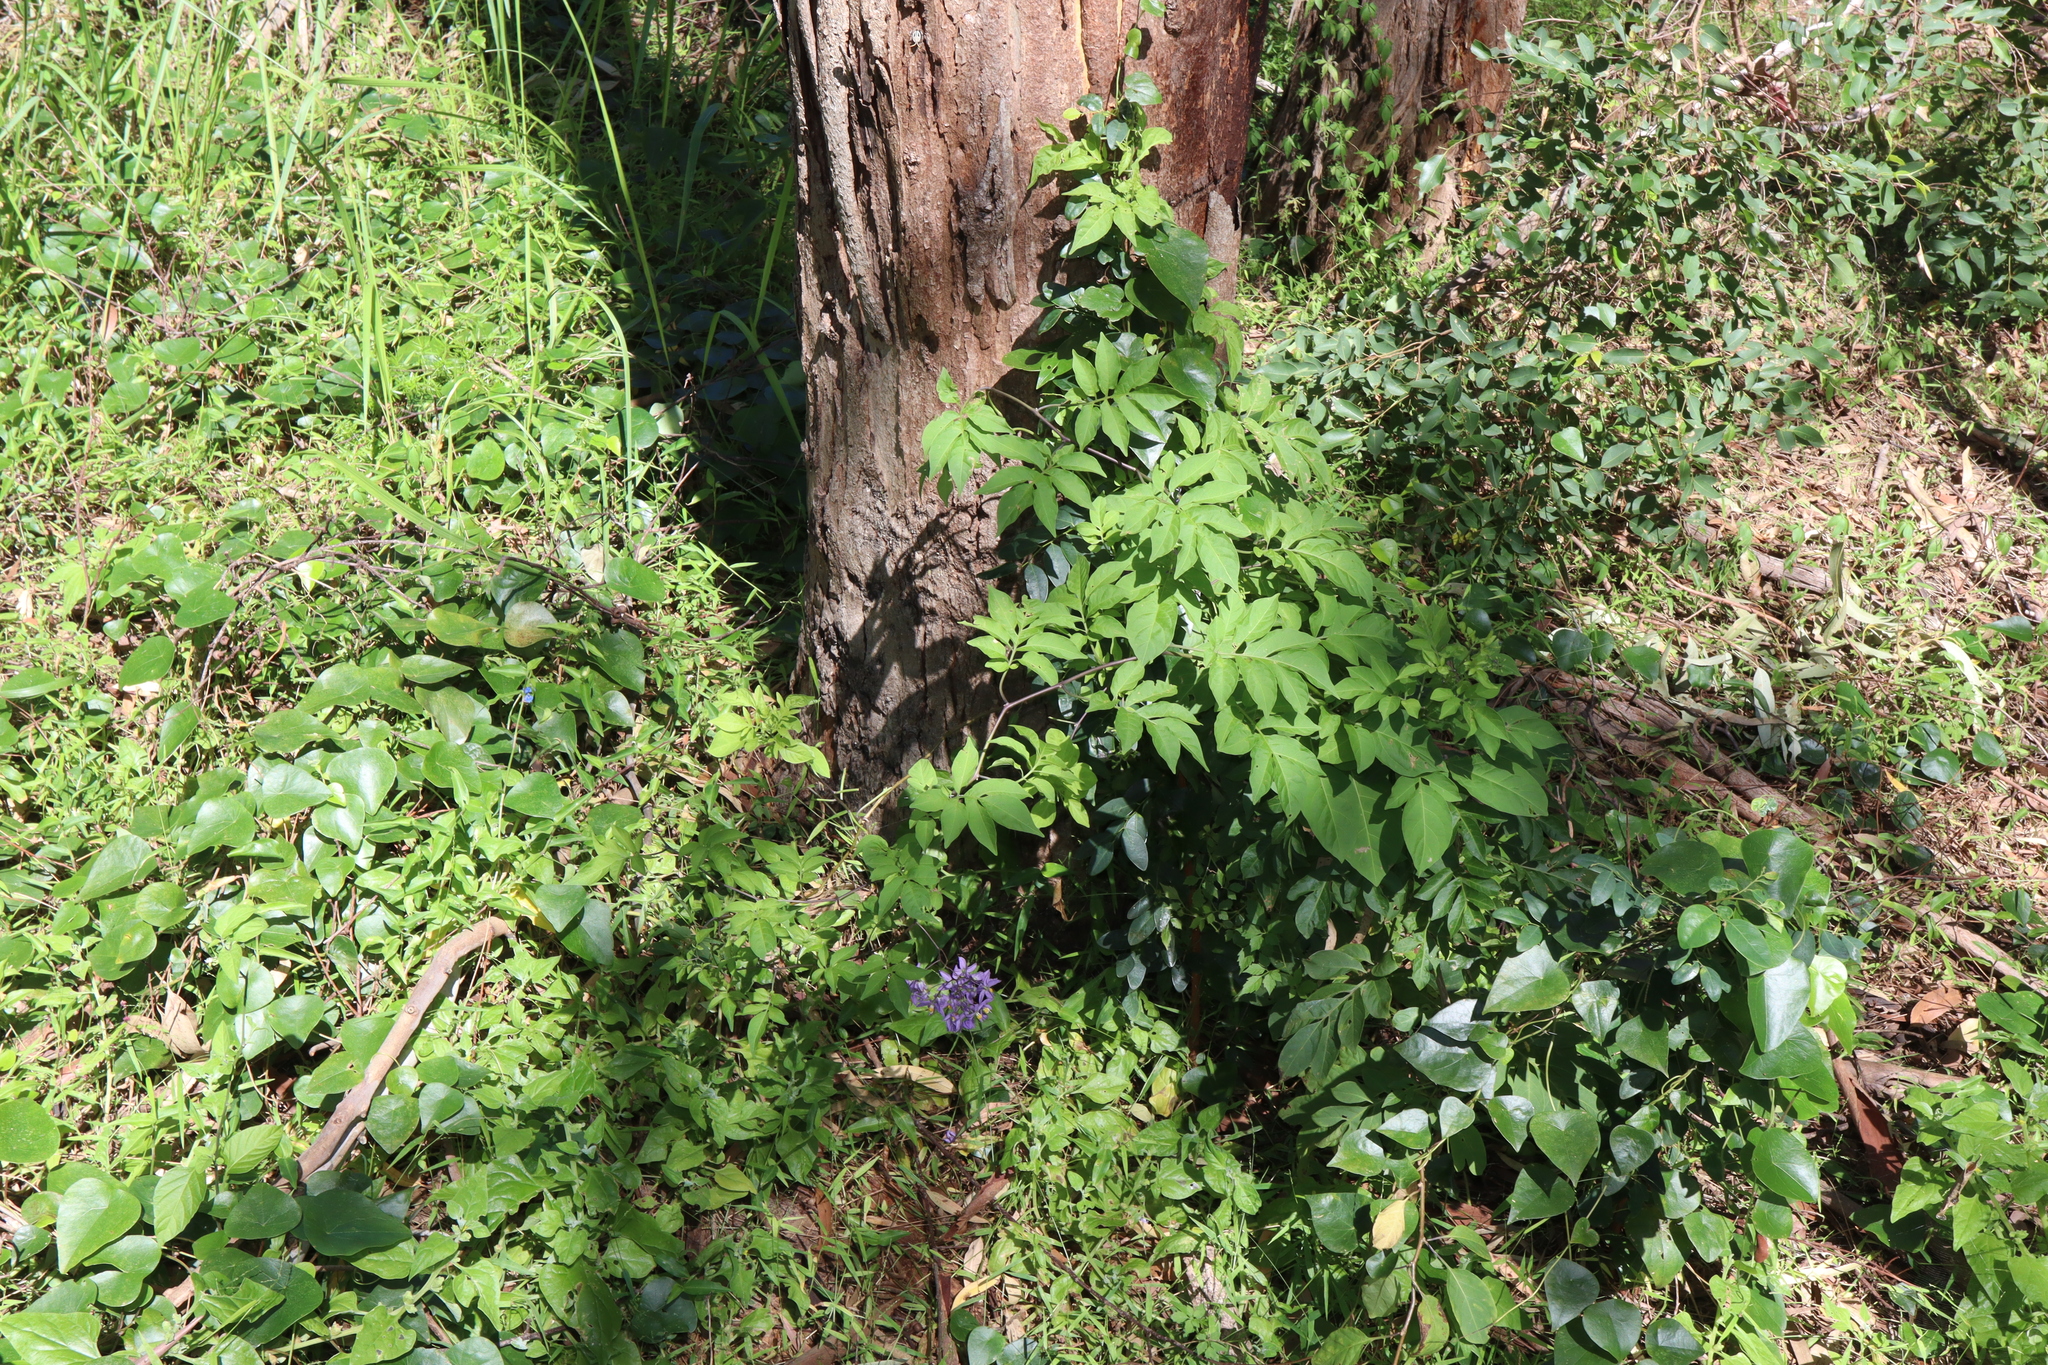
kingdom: Plantae
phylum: Tracheophyta
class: Magnoliopsida
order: Solanales
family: Solanaceae
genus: Solanum
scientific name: Solanum seaforthianum
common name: Brazilian nightshade
